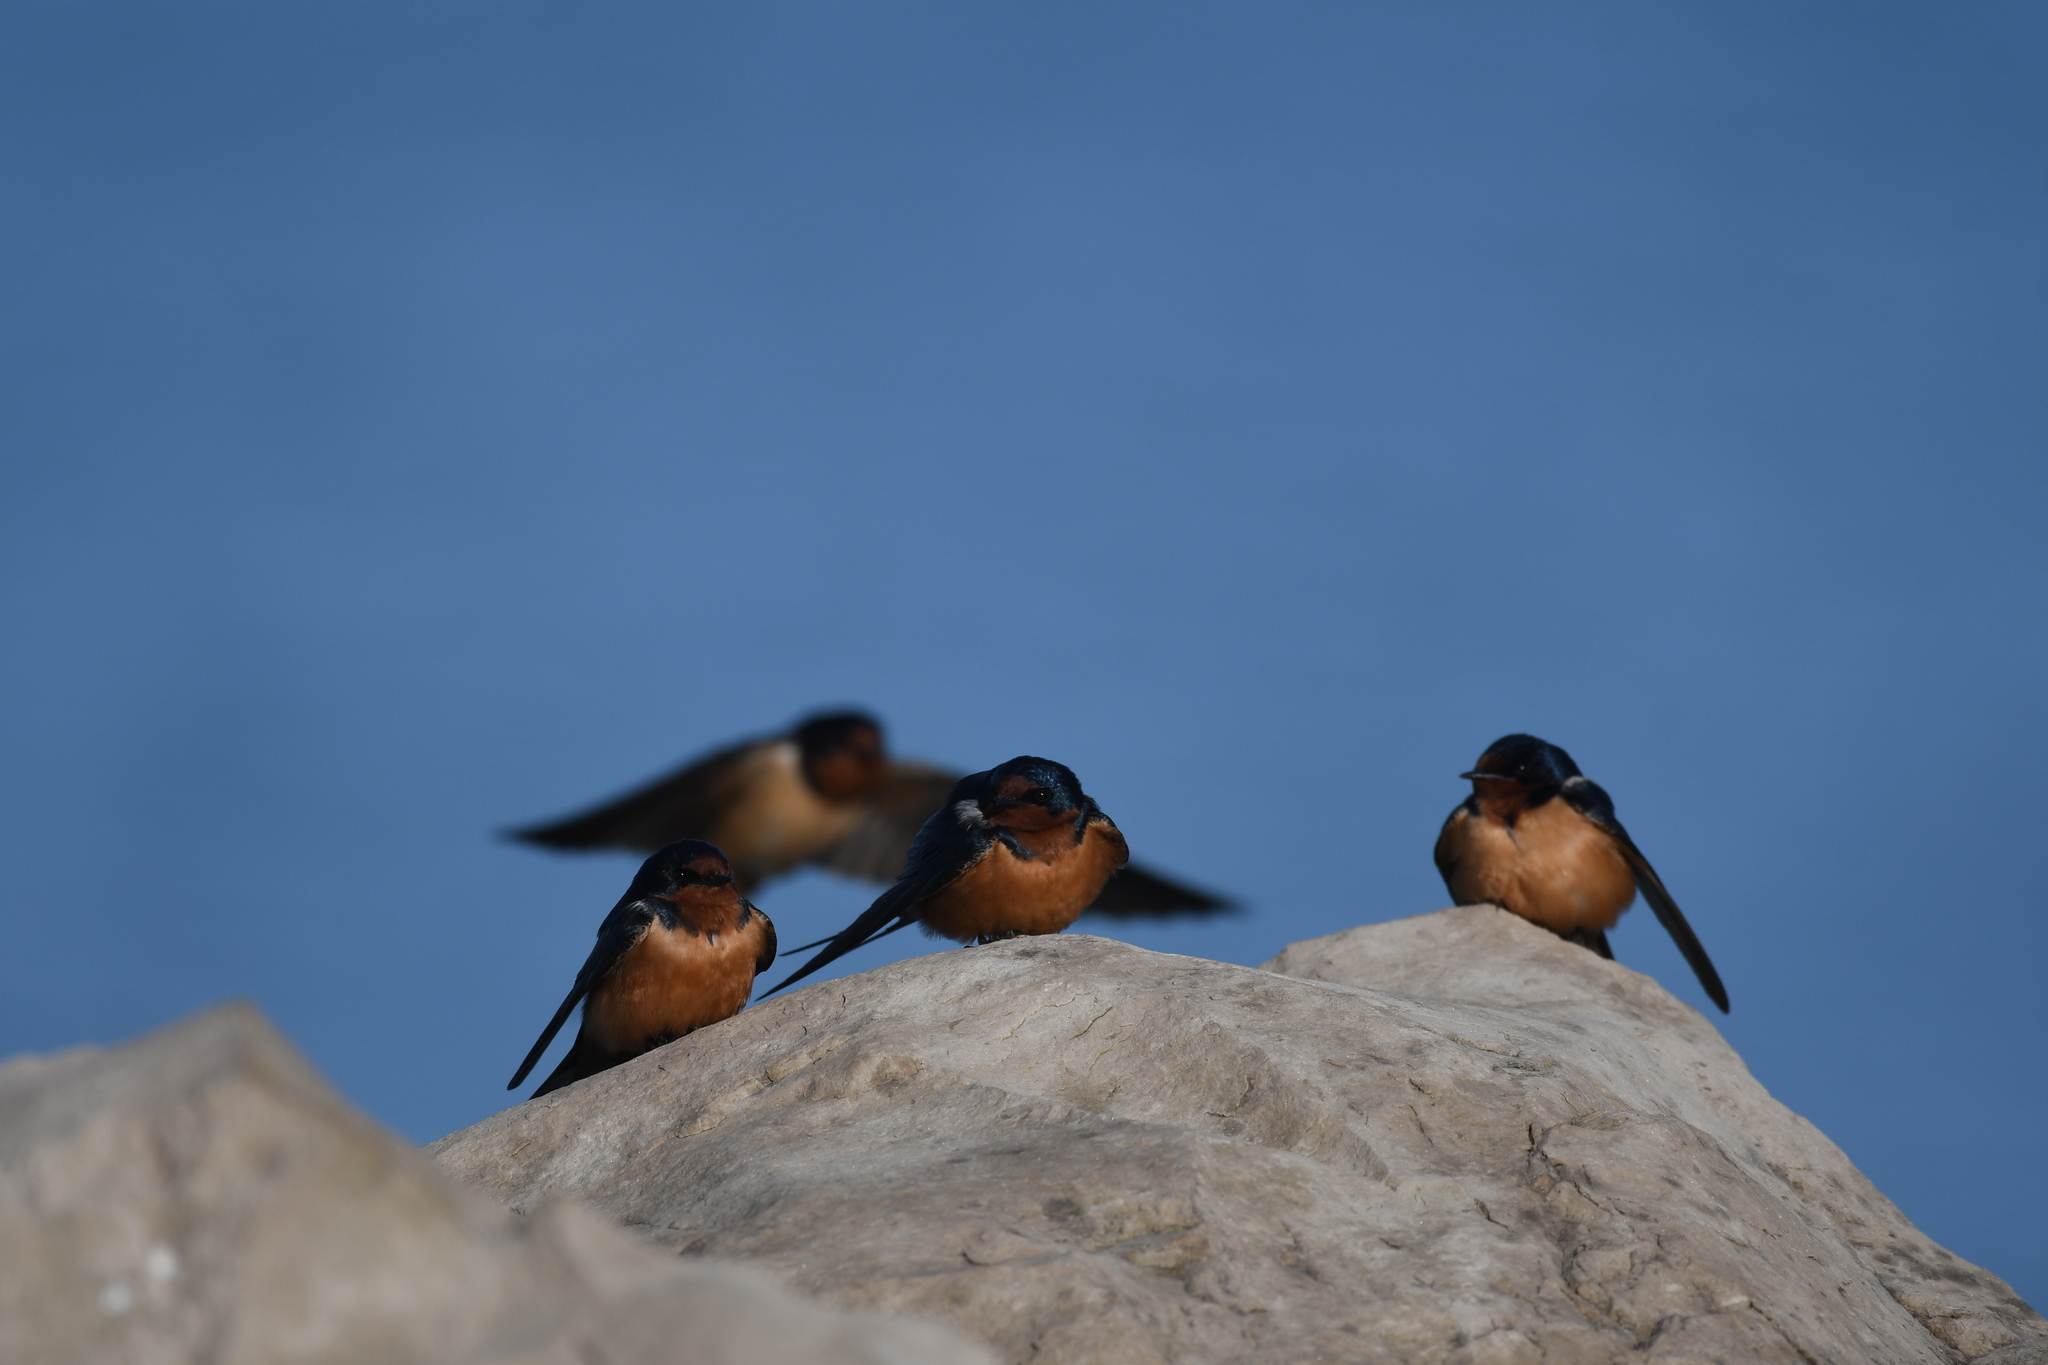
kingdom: Animalia
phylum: Chordata
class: Aves
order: Passeriformes
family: Hirundinidae
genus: Hirundo
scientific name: Hirundo rustica
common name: Barn swallow
